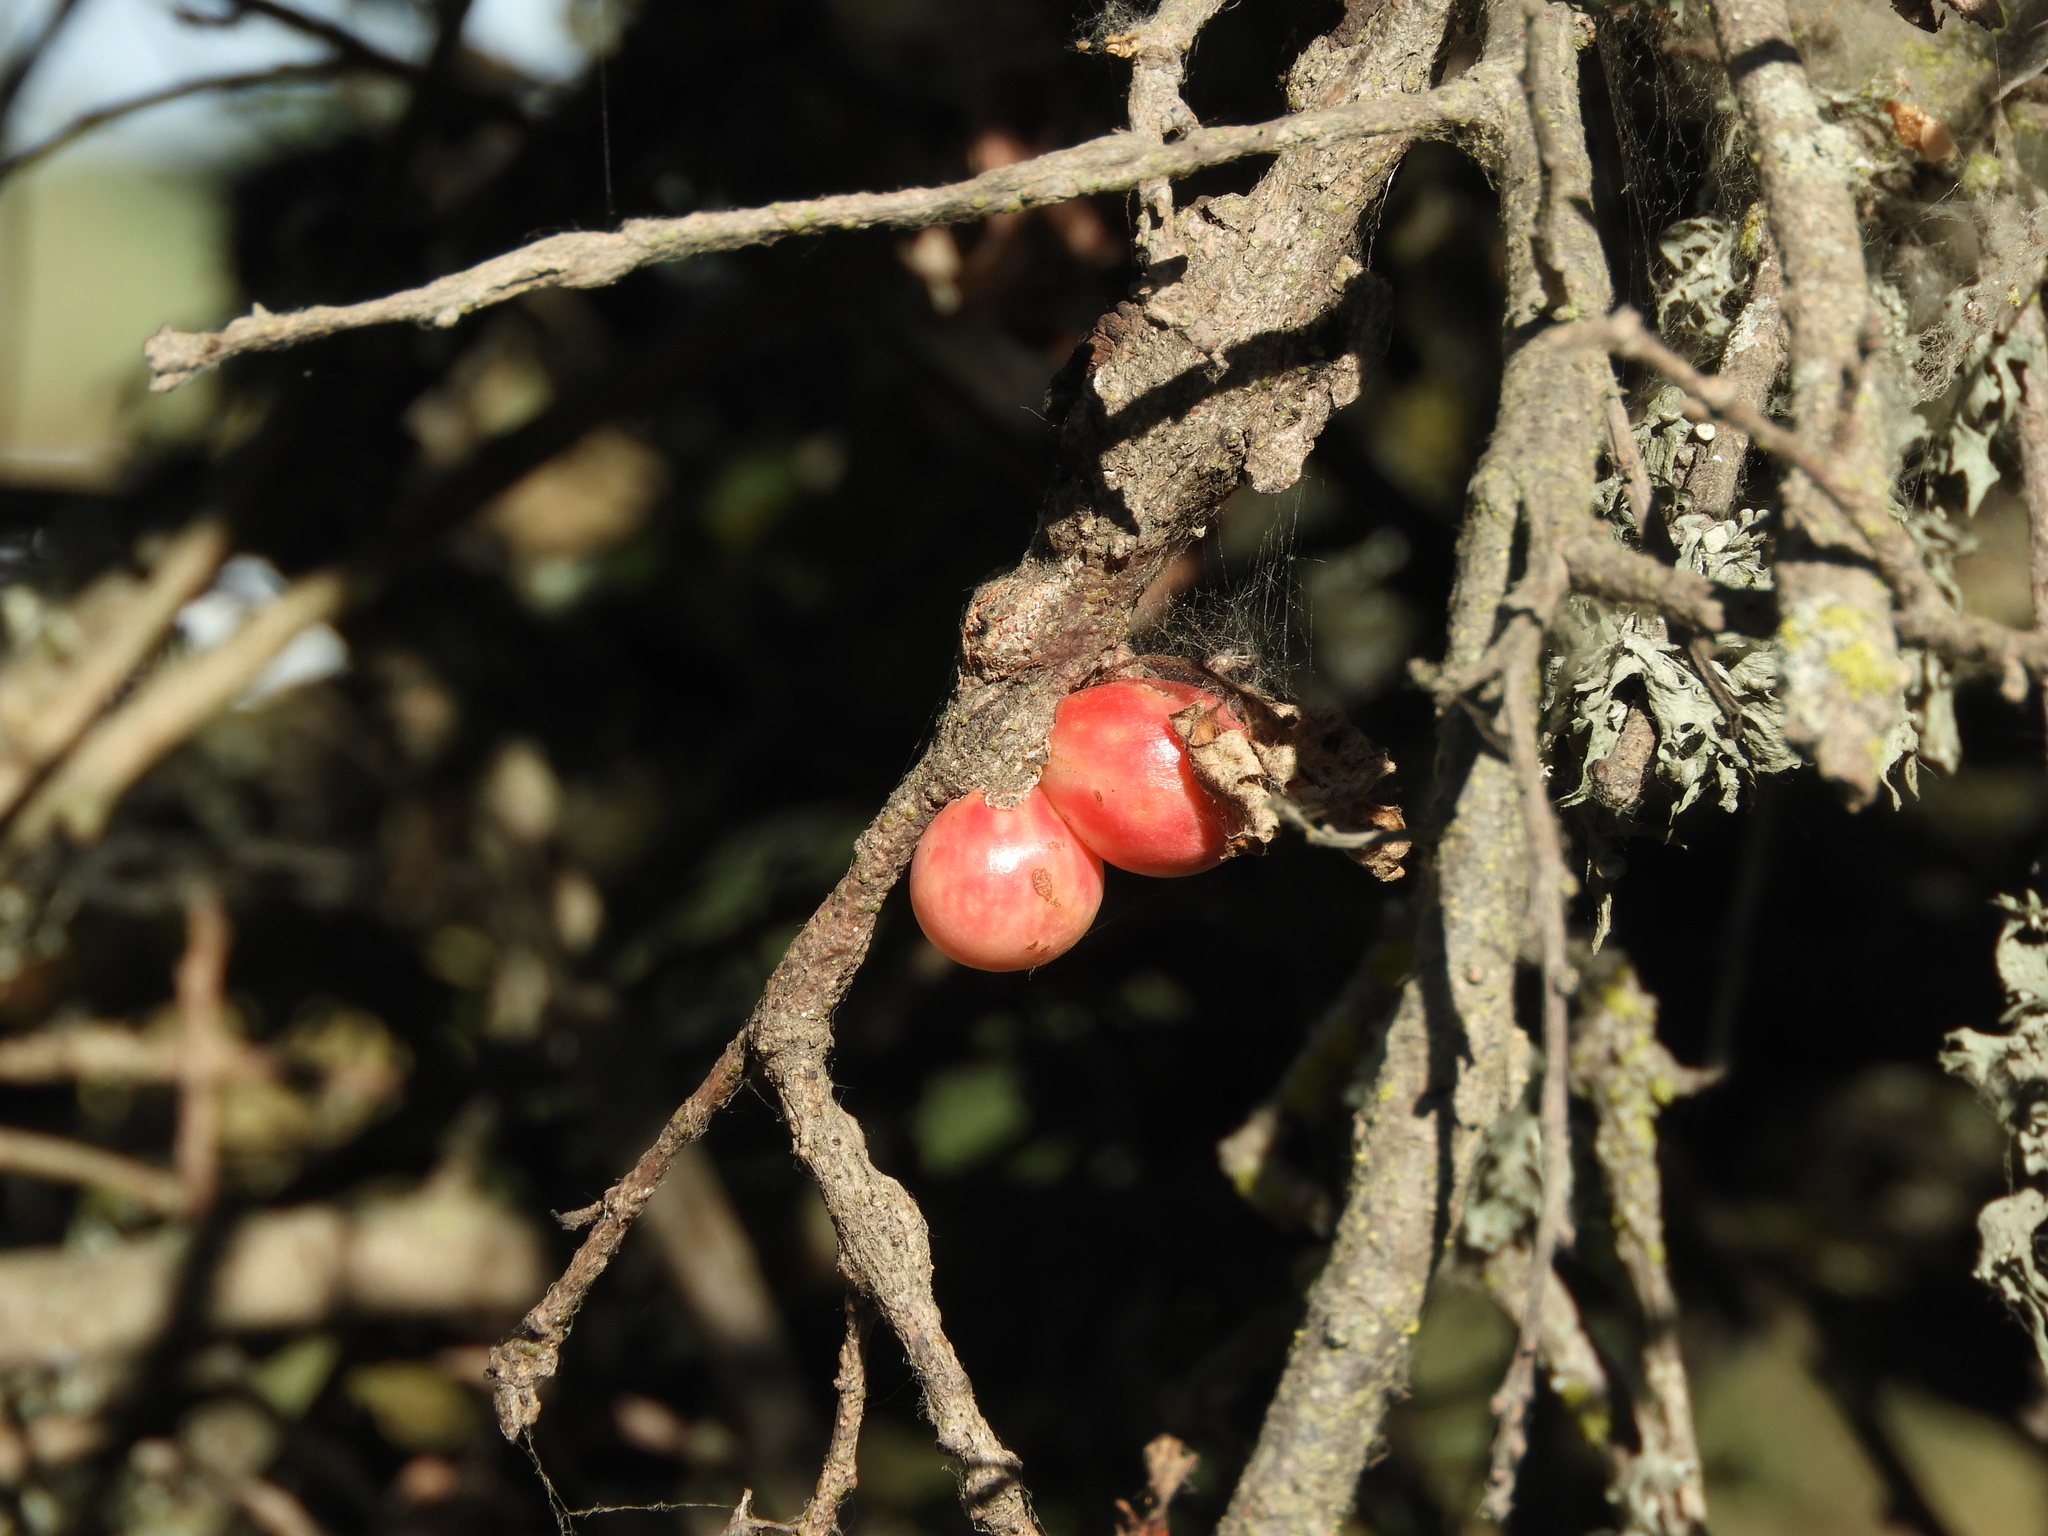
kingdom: Animalia
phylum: Arthropoda
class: Insecta
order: Hymenoptera
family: Cynipidae
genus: Andricus
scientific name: Andricus quercuscalifornicus
